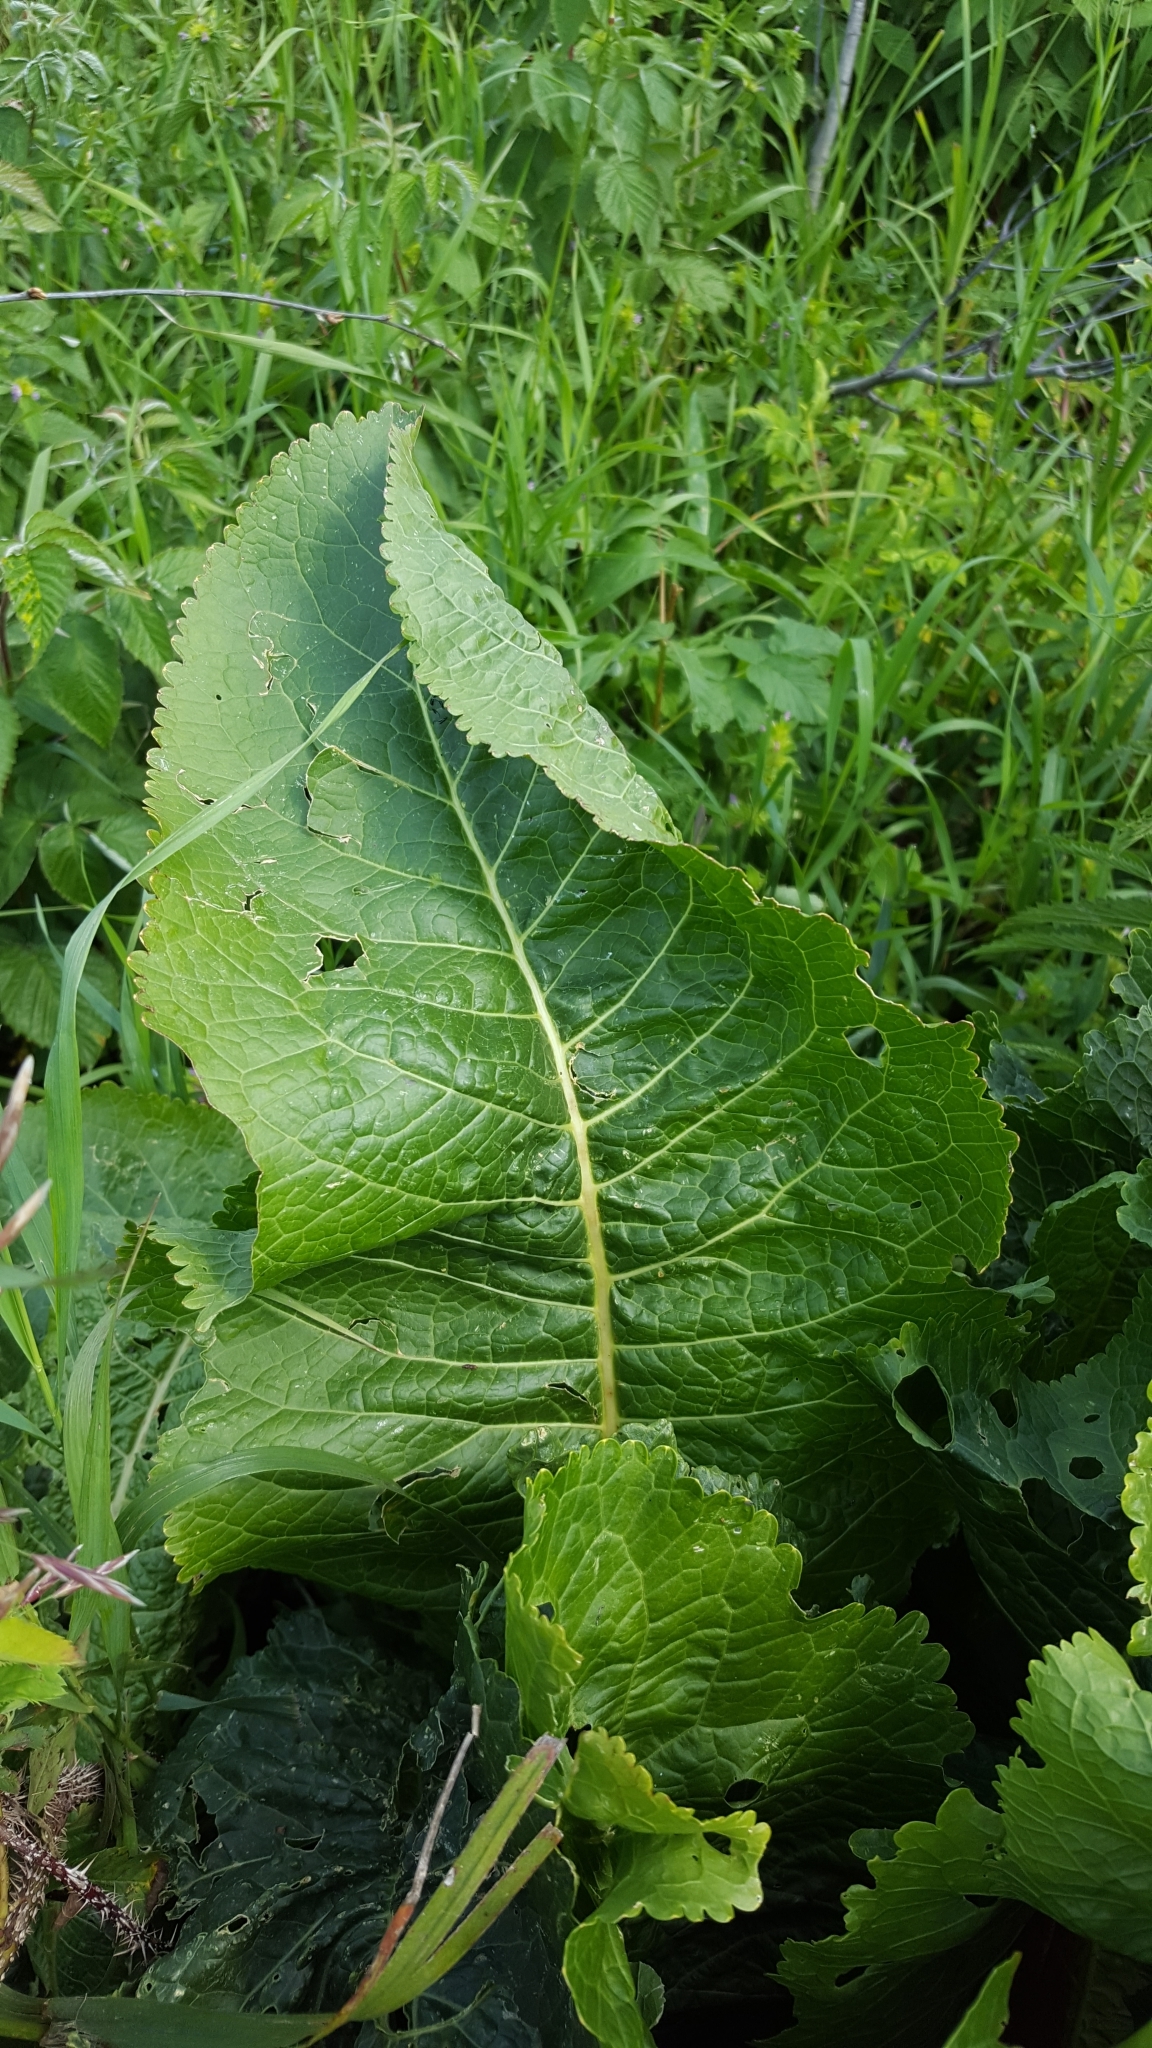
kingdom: Plantae
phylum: Tracheophyta
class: Magnoliopsida
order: Brassicales
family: Brassicaceae
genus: Armoracia
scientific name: Armoracia rusticana
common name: Horseradish
